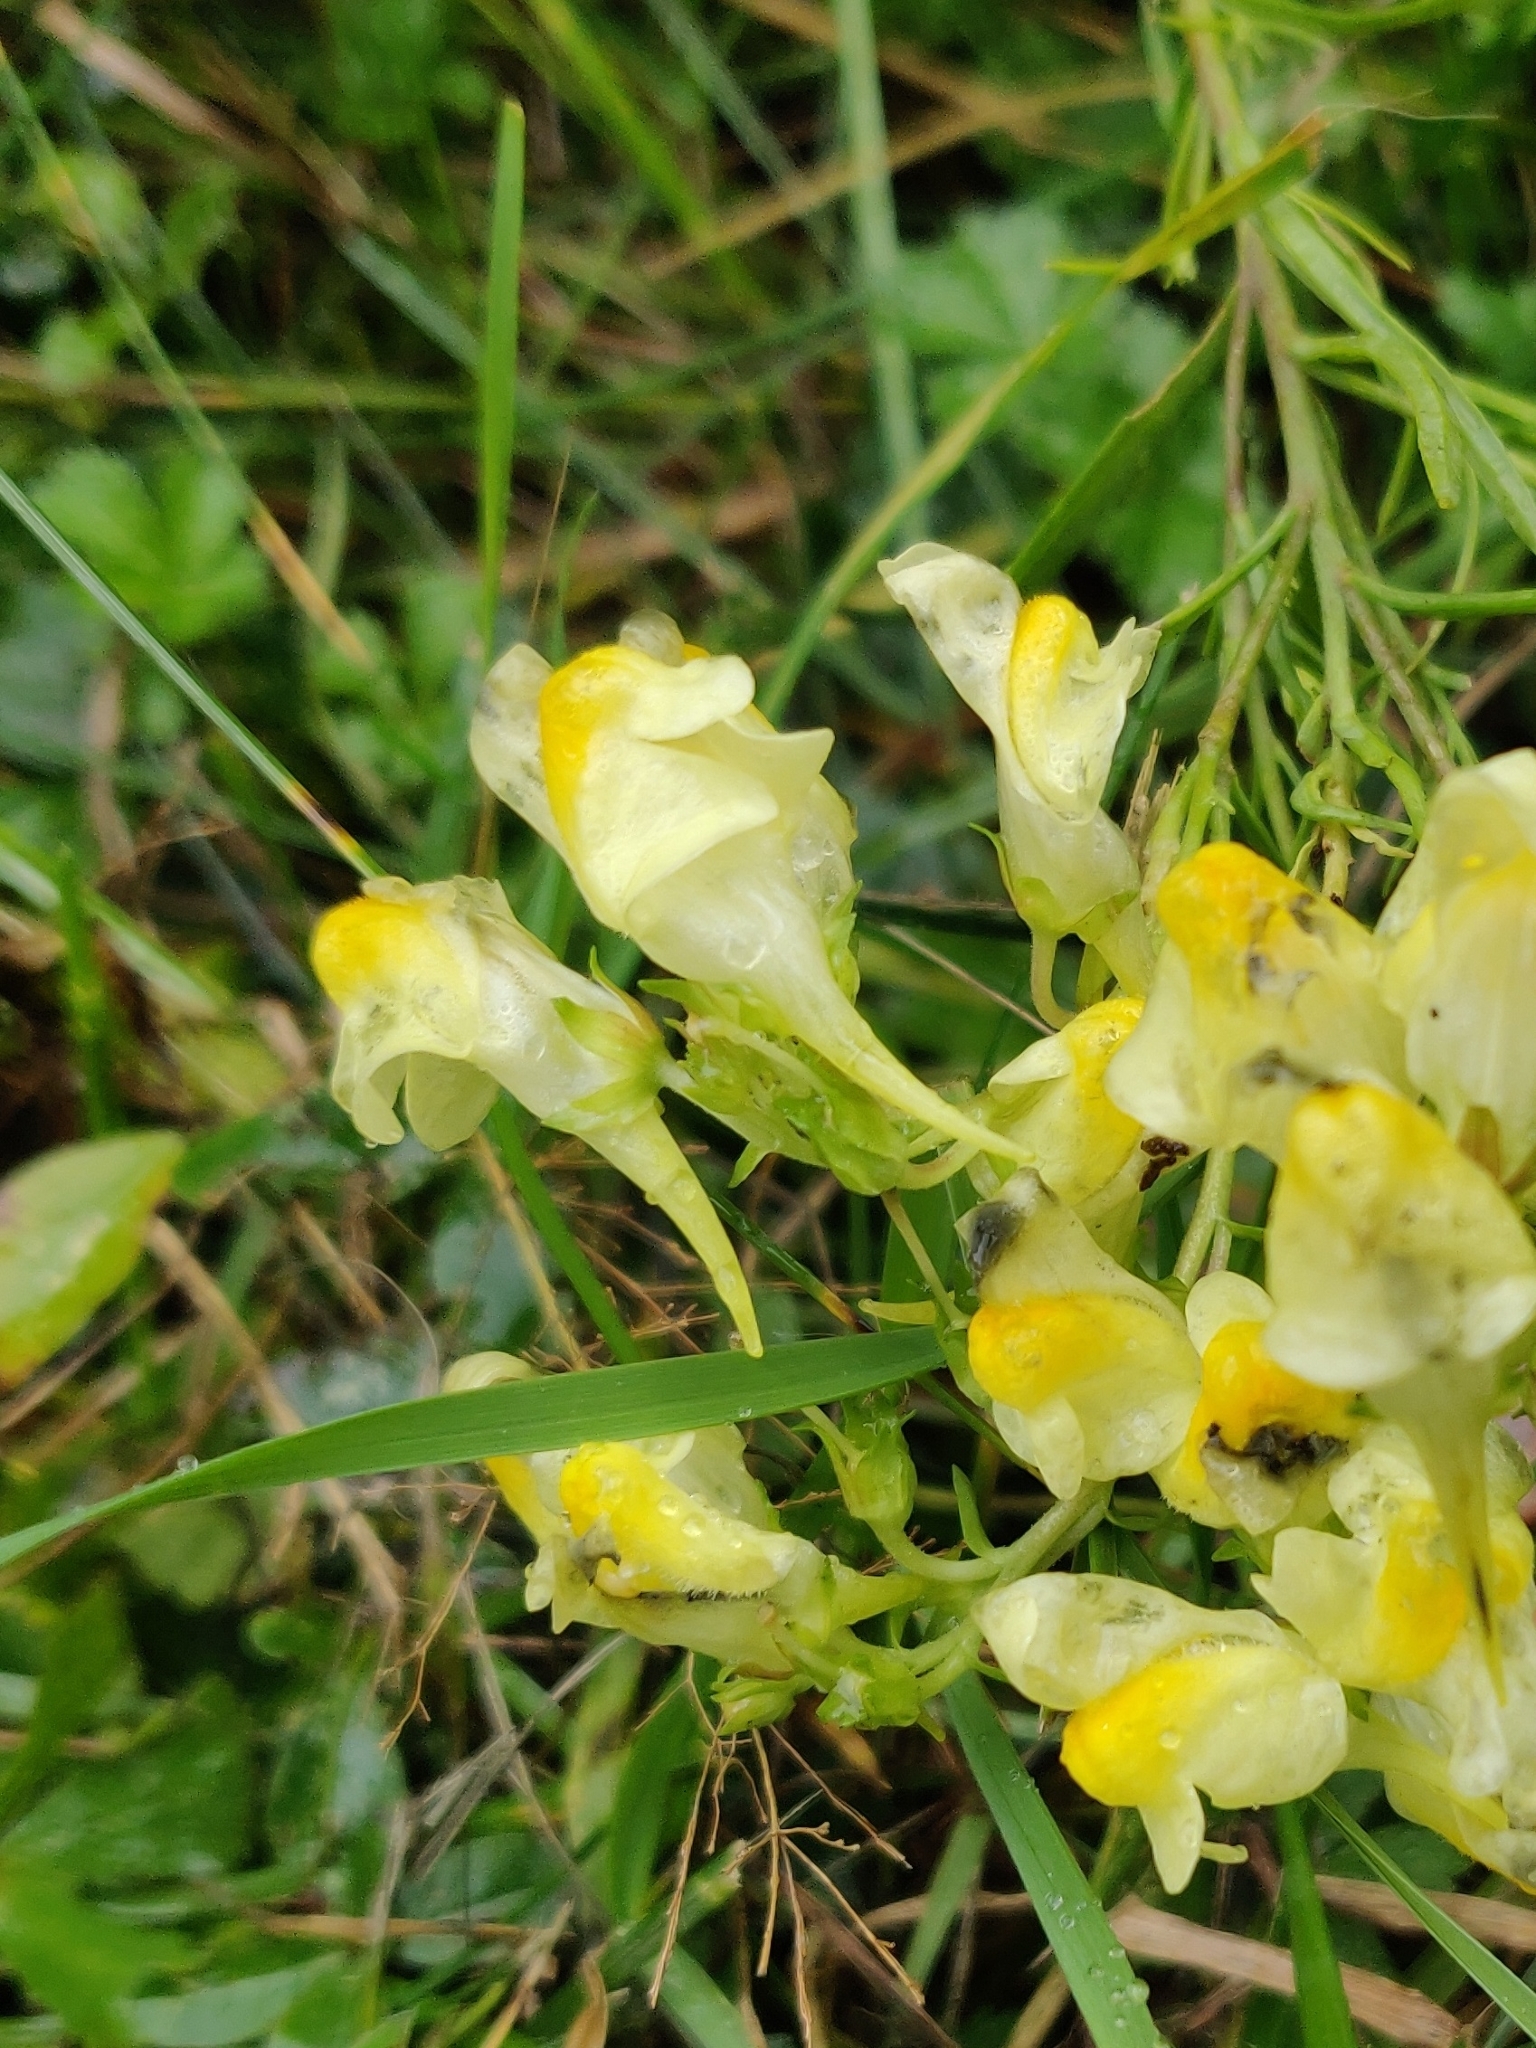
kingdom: Plantae
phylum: Tracheophyta
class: Magnoliopsida
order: Lamiales
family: Plantaginaceae
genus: Linaria
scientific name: Linaria vulgaris
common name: Butter and eggs
